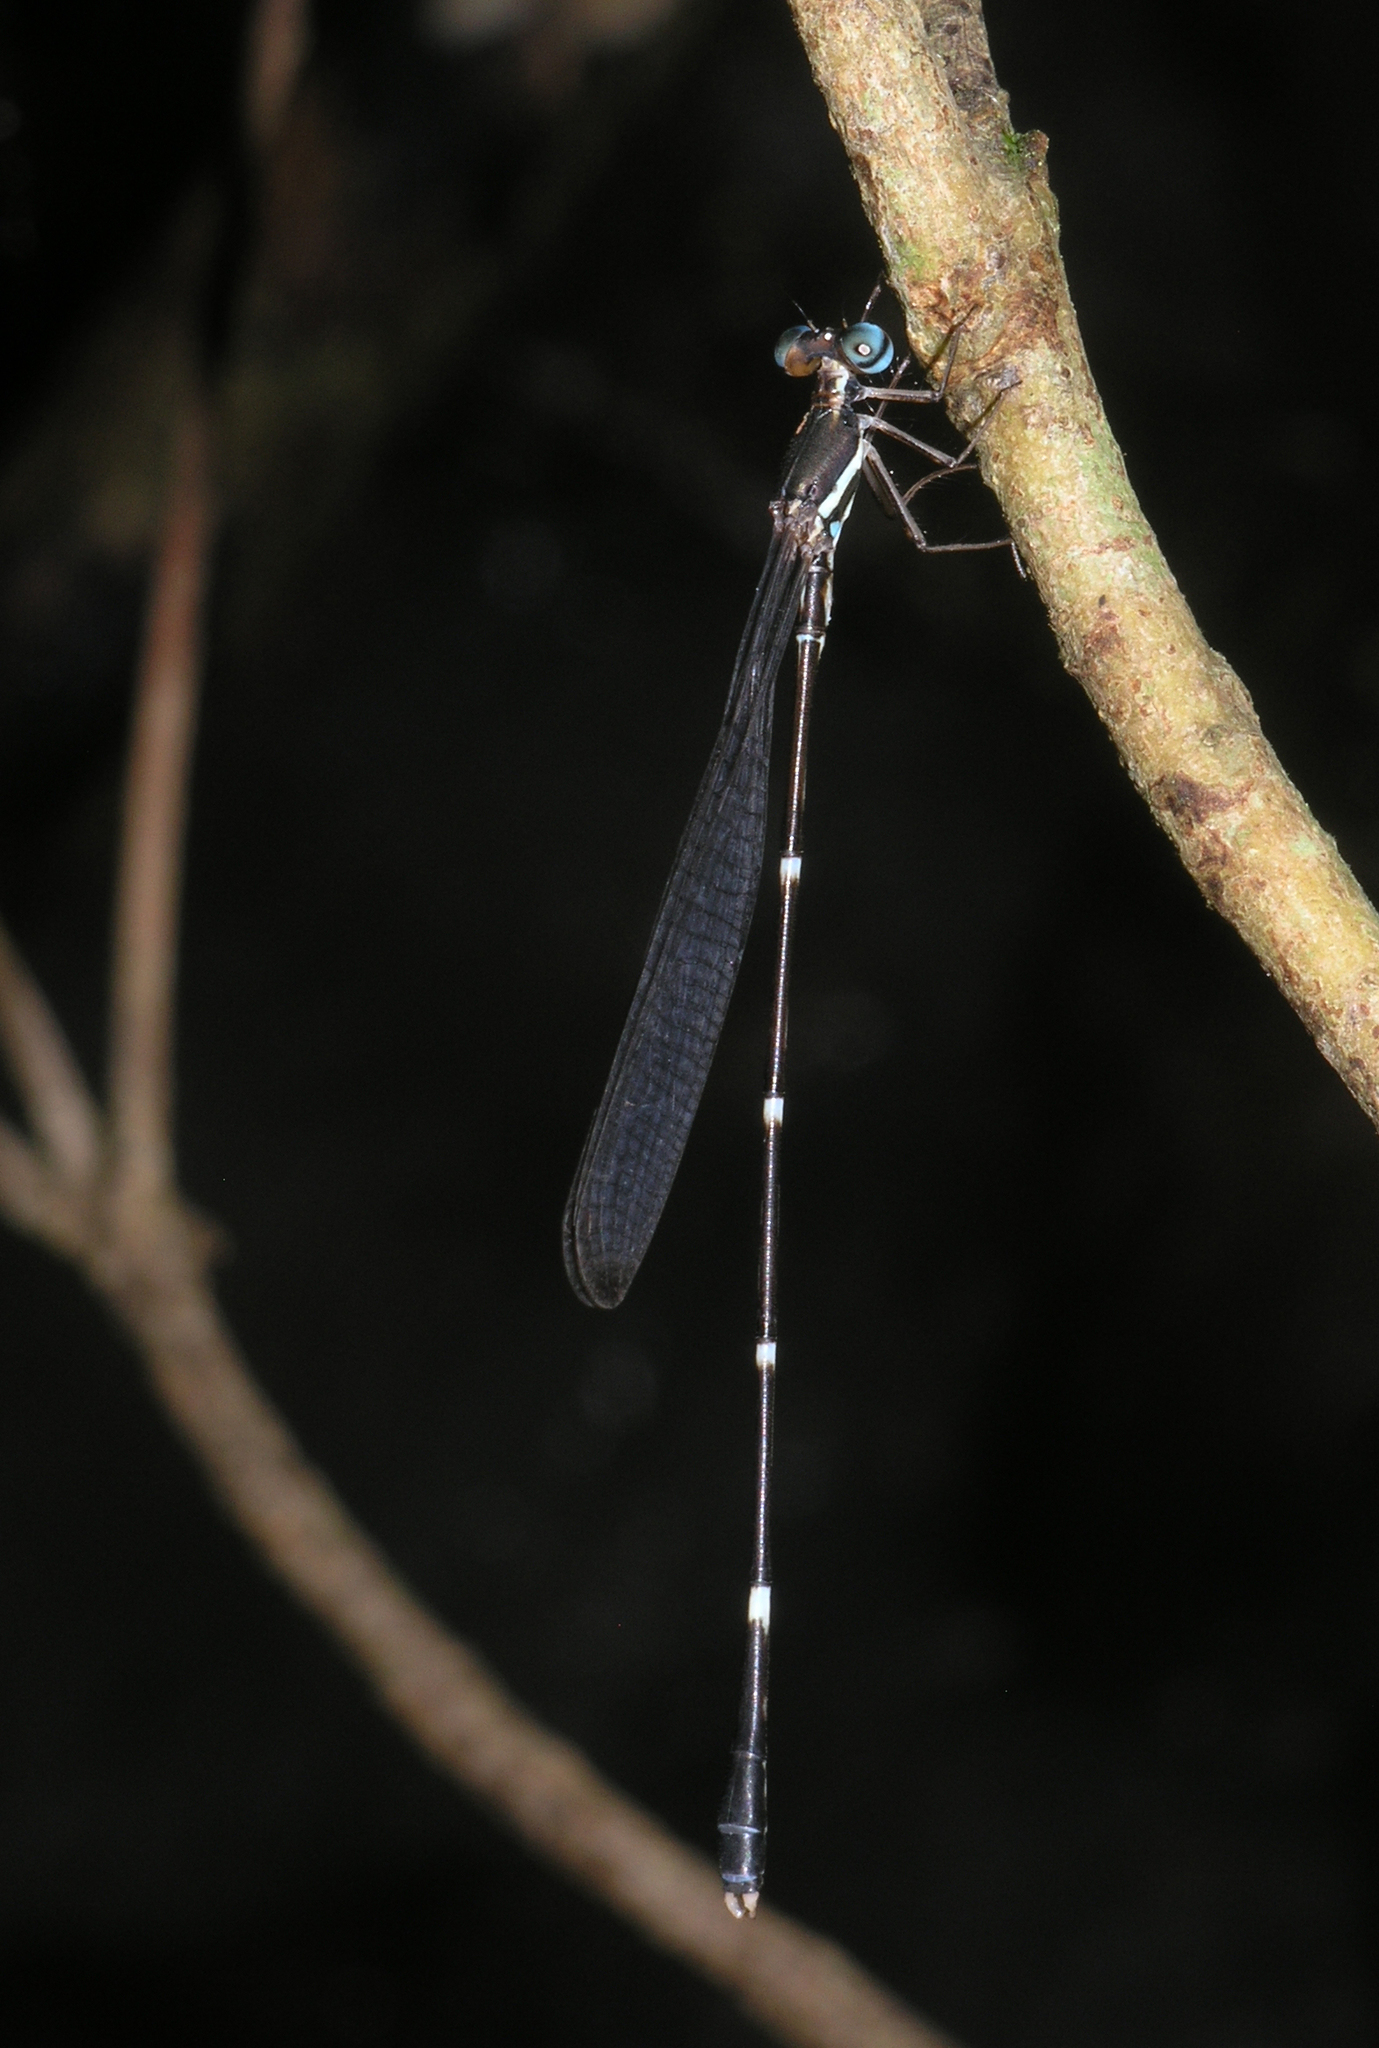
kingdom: Animalia
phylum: Arthropoda
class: Insecta
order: Odonata
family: Platystictidae
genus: Protosticta
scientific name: Protosticta robusta
